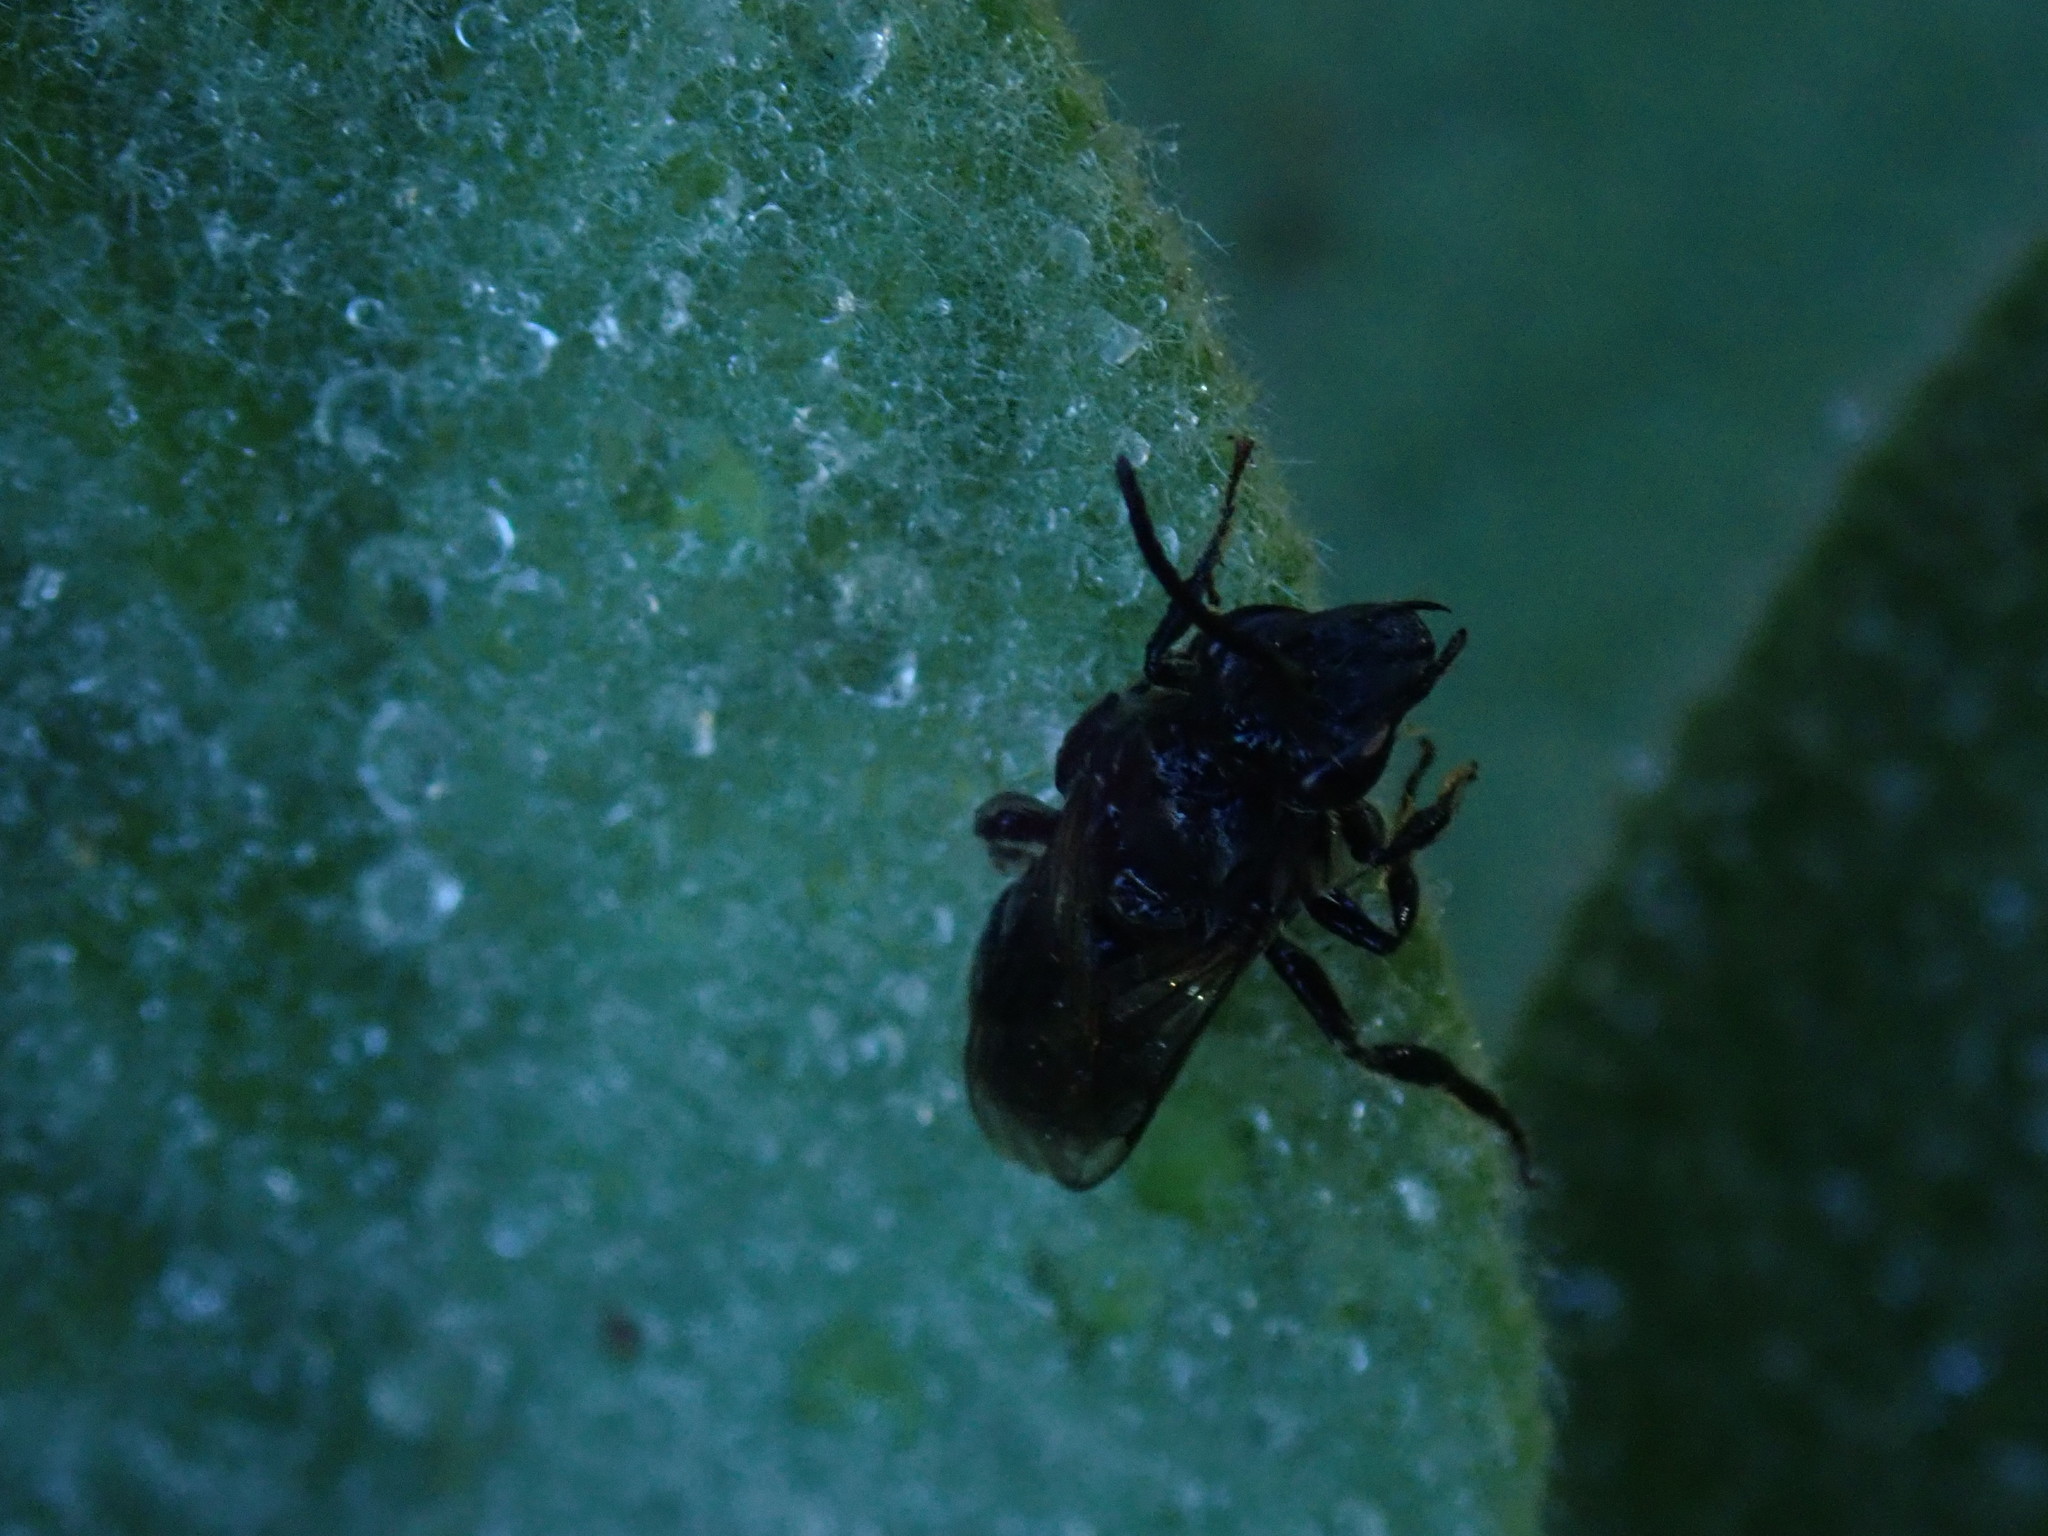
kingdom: Animalia
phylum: Arthropoda
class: Insecta
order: Hymenoptera
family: Colletidae
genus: Colletes
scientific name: Colletes validus
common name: Blueberry cellophane bee
